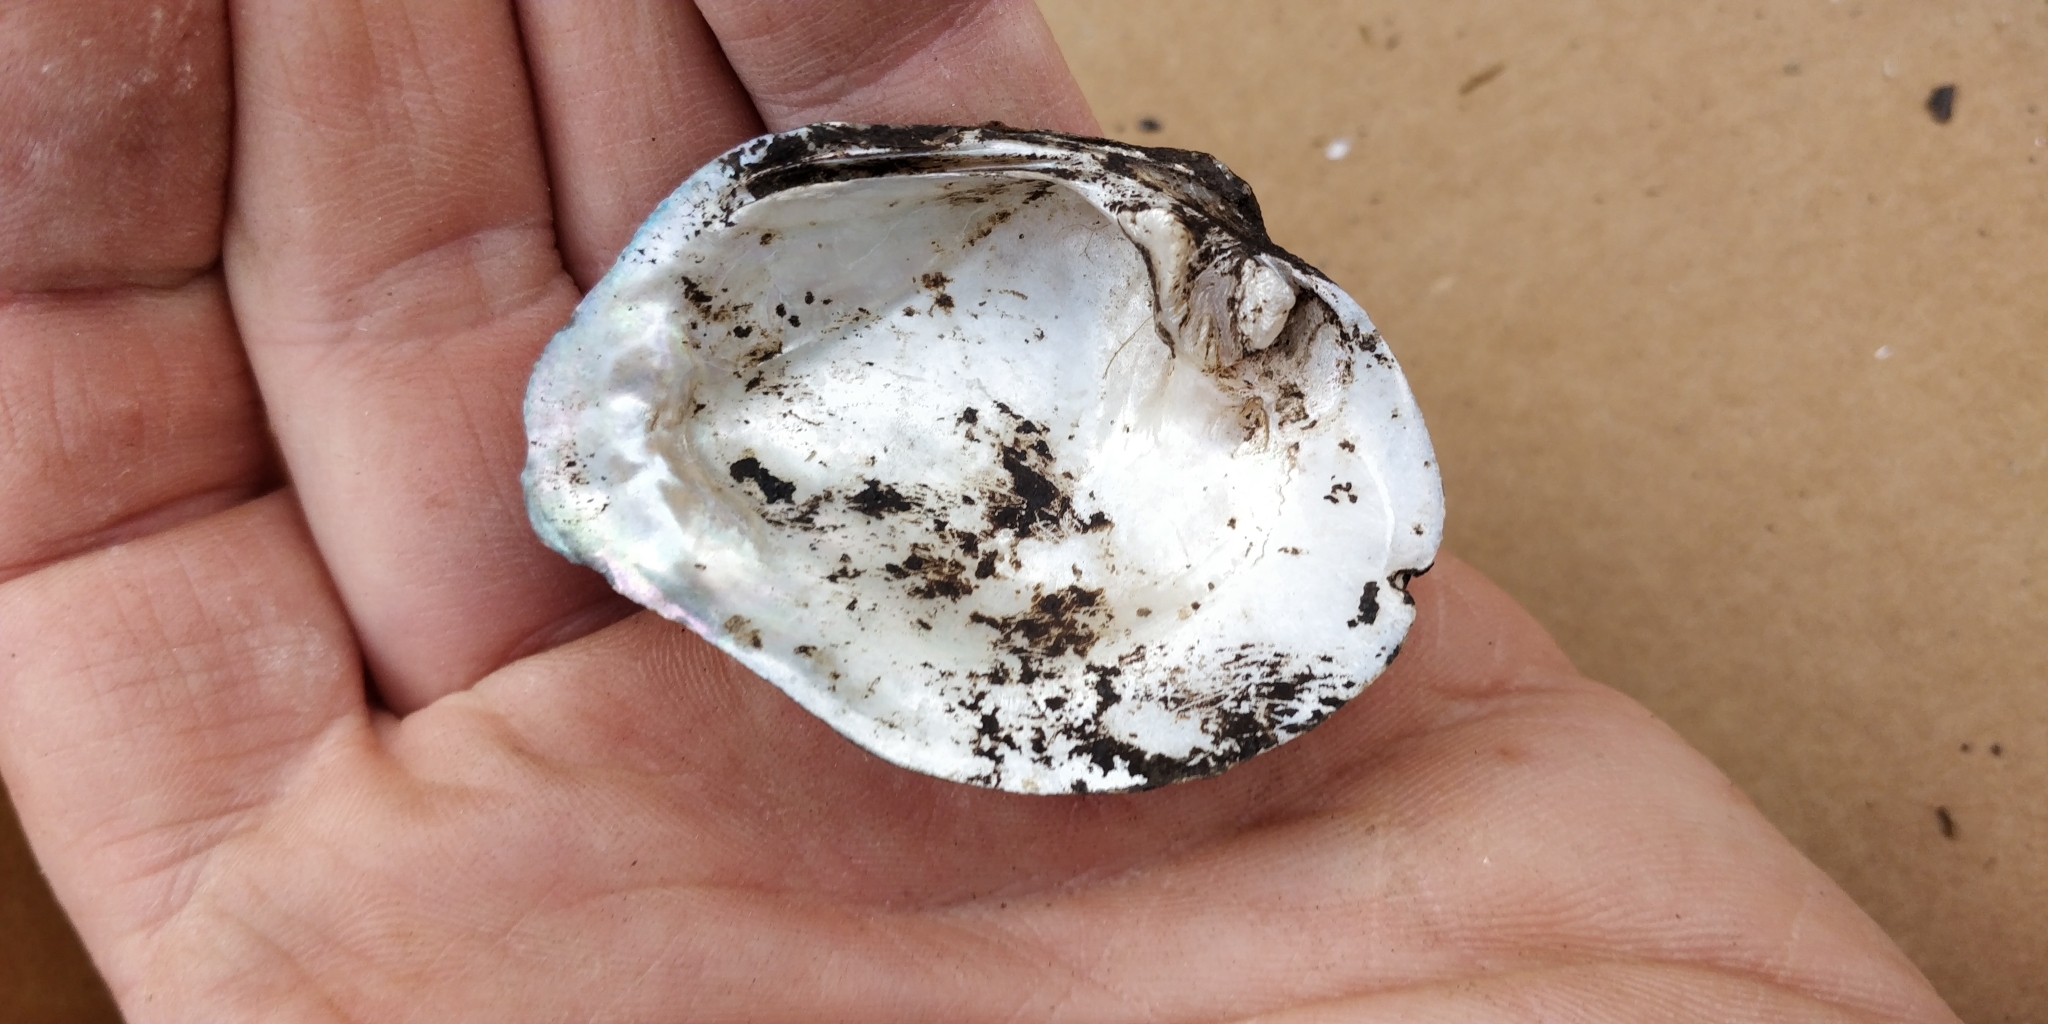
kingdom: Animalia
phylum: Mollusca
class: Bivalvia
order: Unionida
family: Unionidae
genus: Quadrula
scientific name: Quadrula quadrula
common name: Mapleleaf
